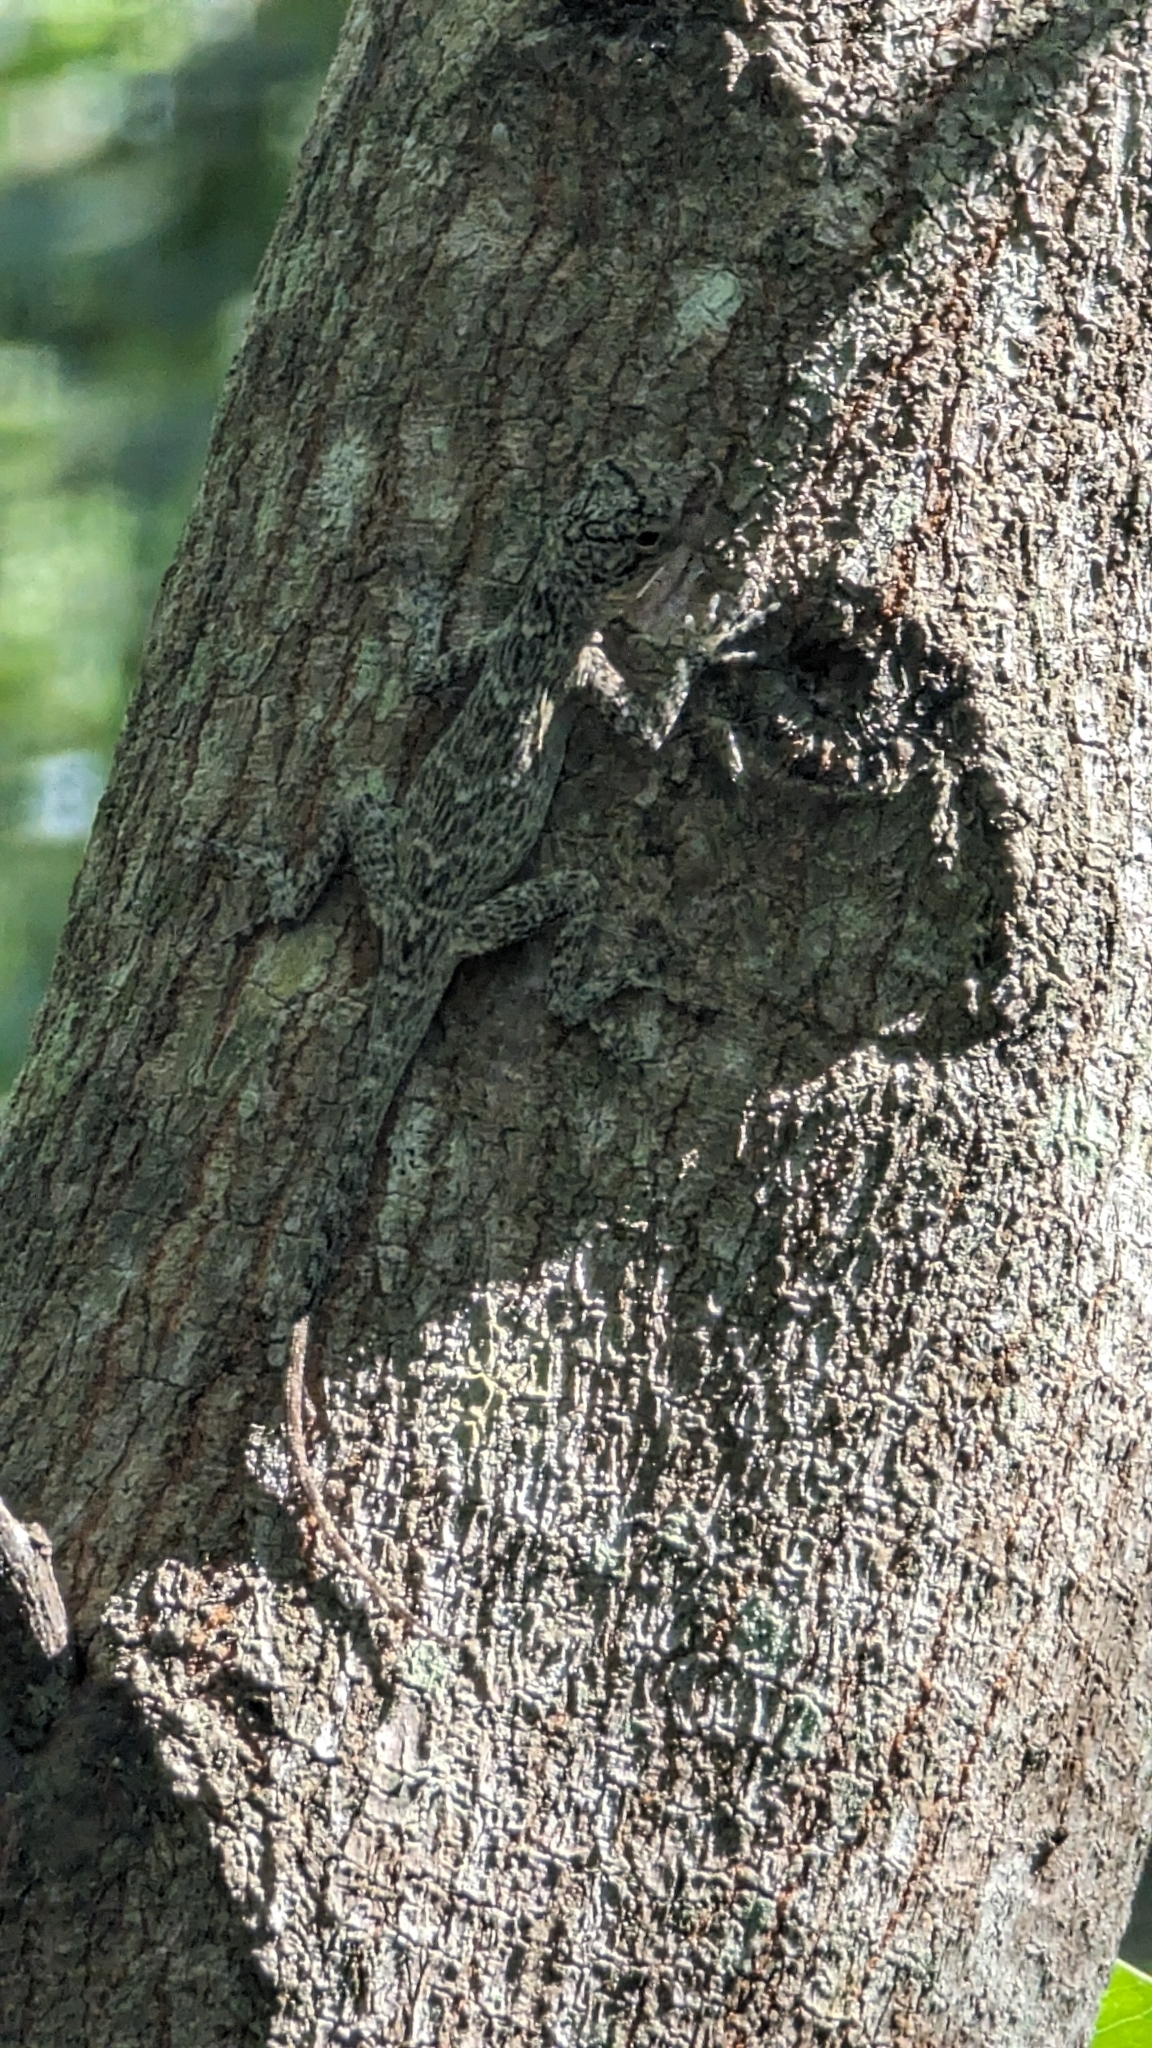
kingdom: Animalia
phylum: Chordata
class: Squamata
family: Dactyloidae
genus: Anolis
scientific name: Anolis distichus
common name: Bark anole
